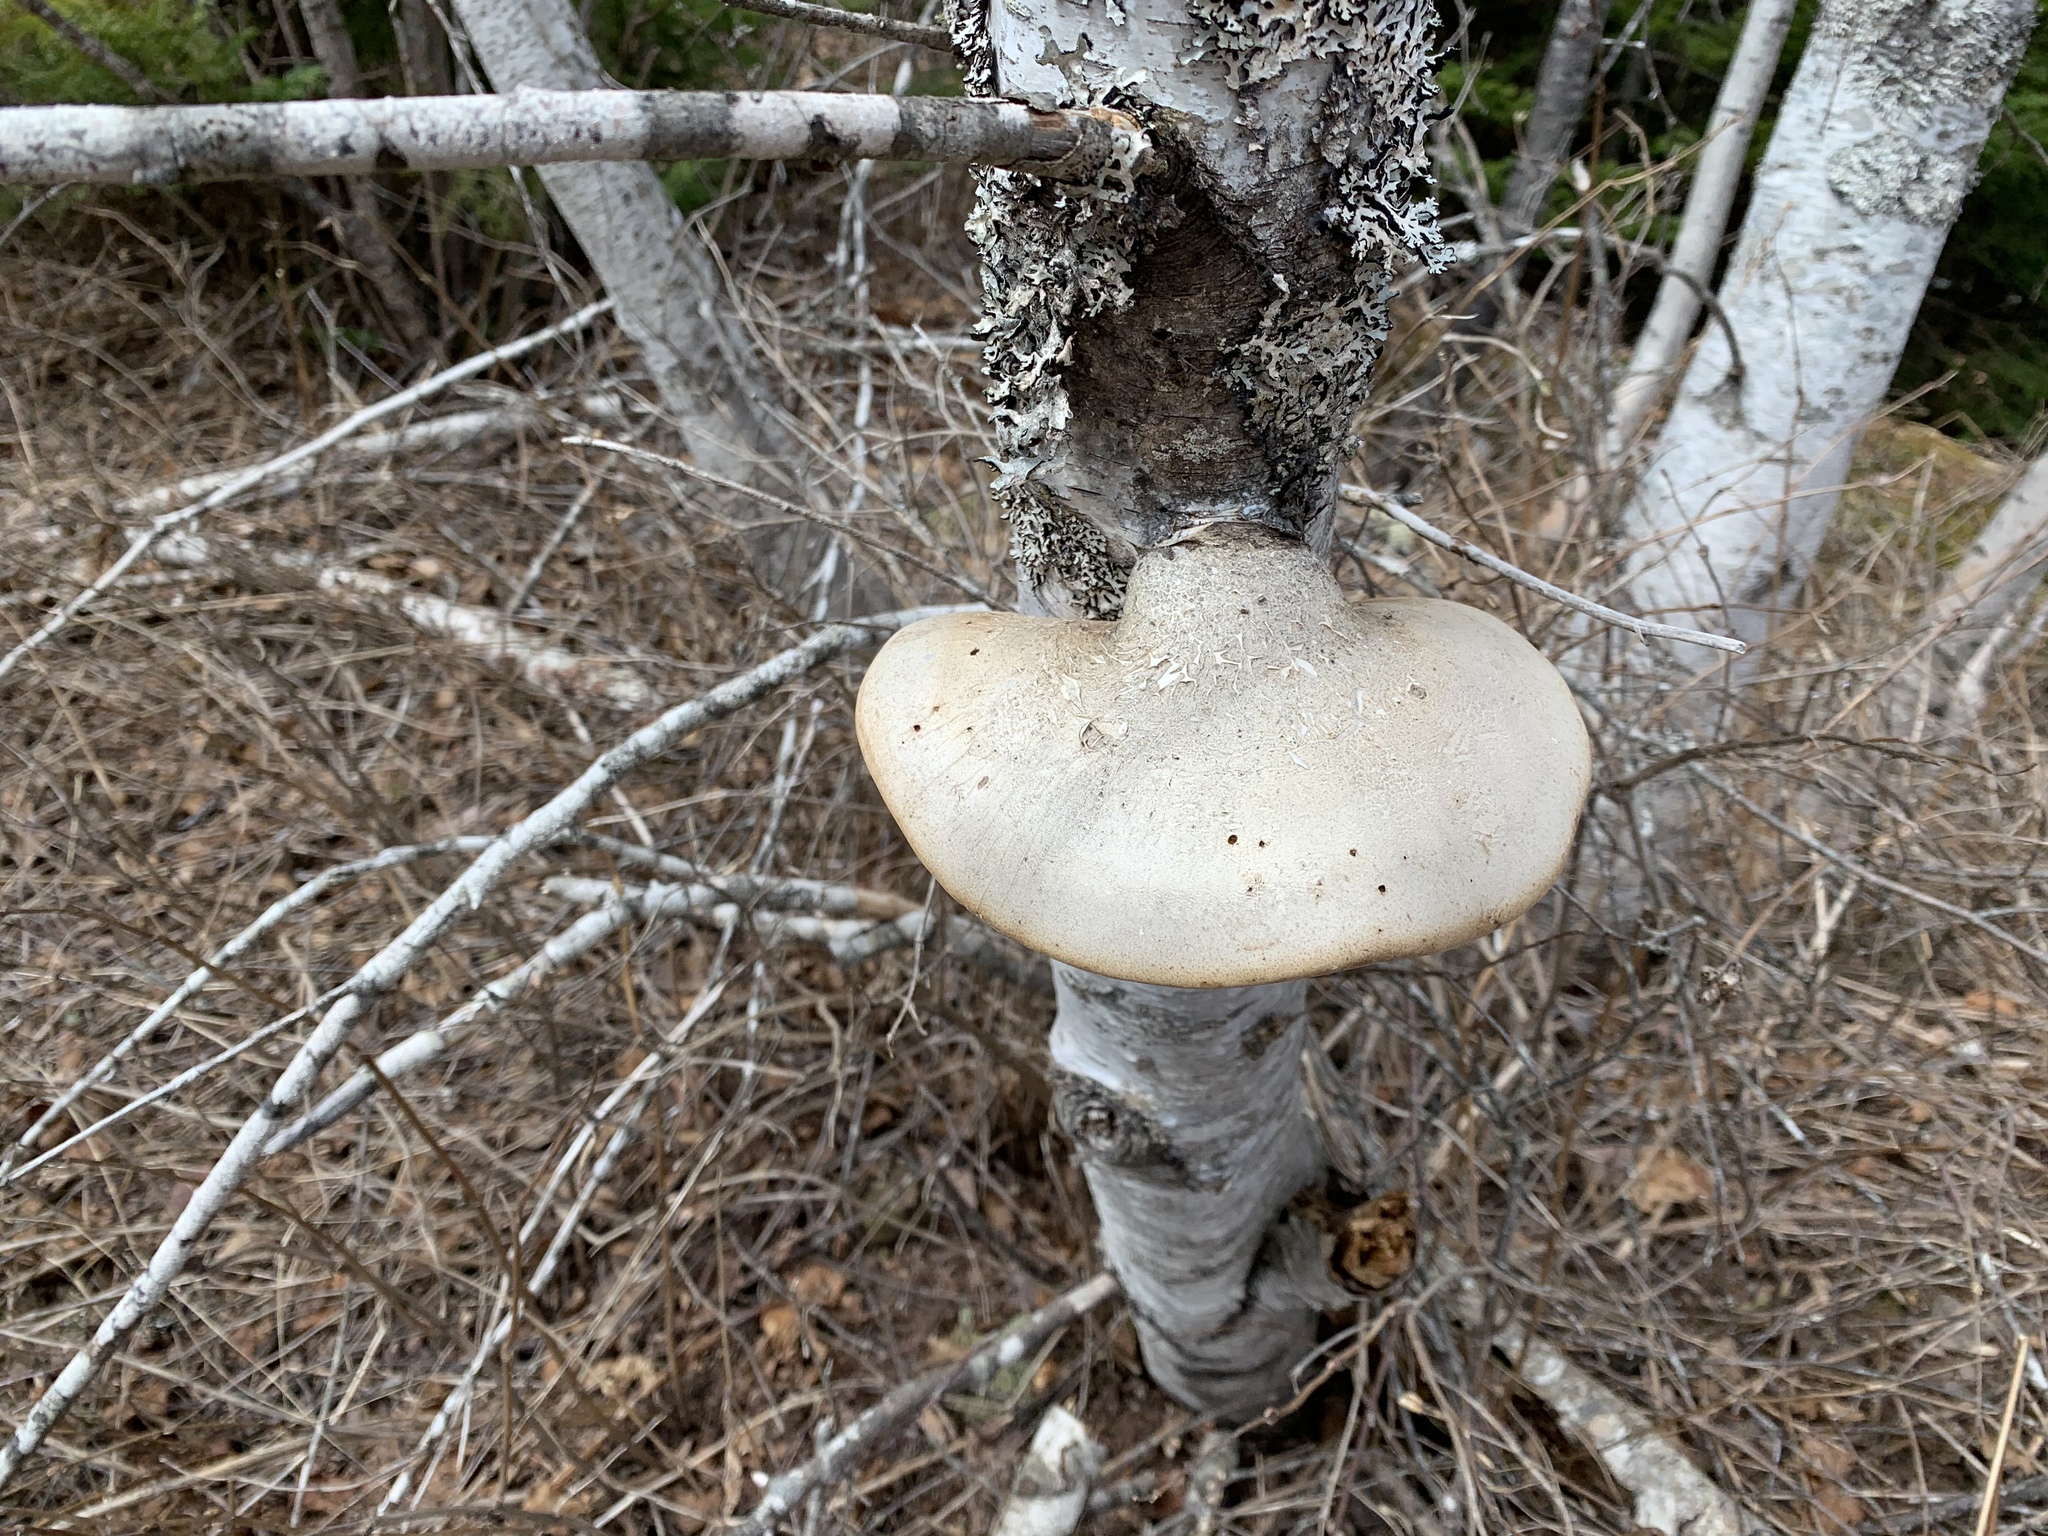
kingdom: Fungi
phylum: Basidiomycota
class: Agaricomycetes
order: Polyporales
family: Fomitopsidaceae
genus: Fomitopsis
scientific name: Fomitopsis betulina
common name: Birch polypore
